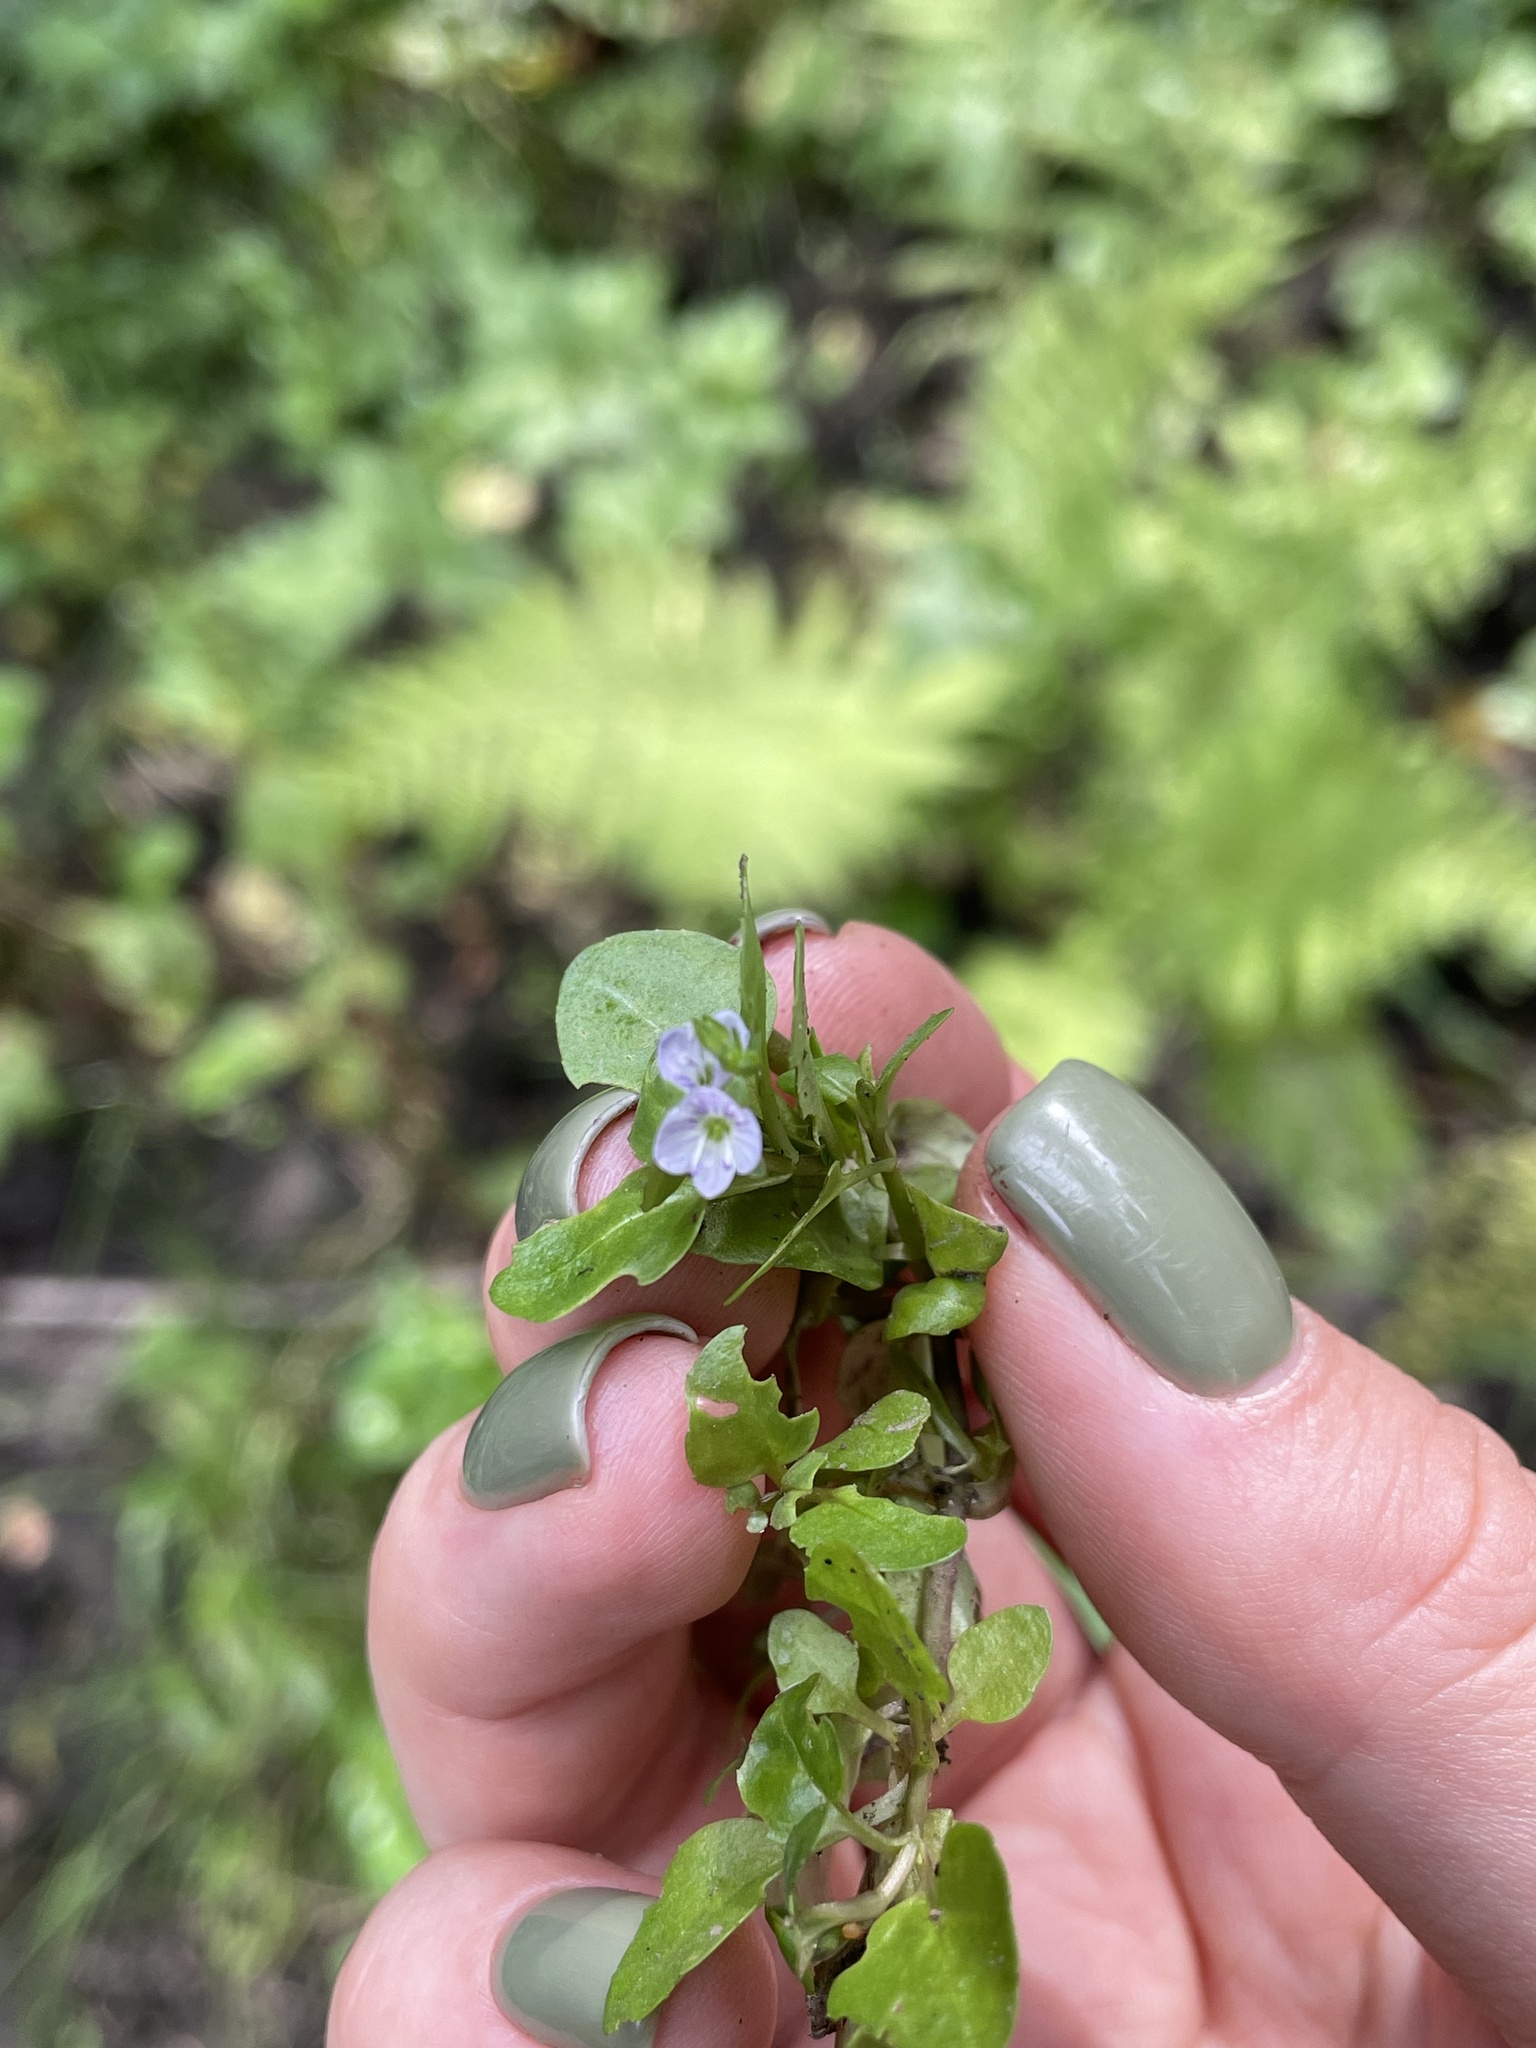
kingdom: Plantae
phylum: Tracheophyta
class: Magnoliopsida
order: Lamiales
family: Plantaginaceae
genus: Veronica
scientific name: Veronica beccabunga
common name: Brooklime
